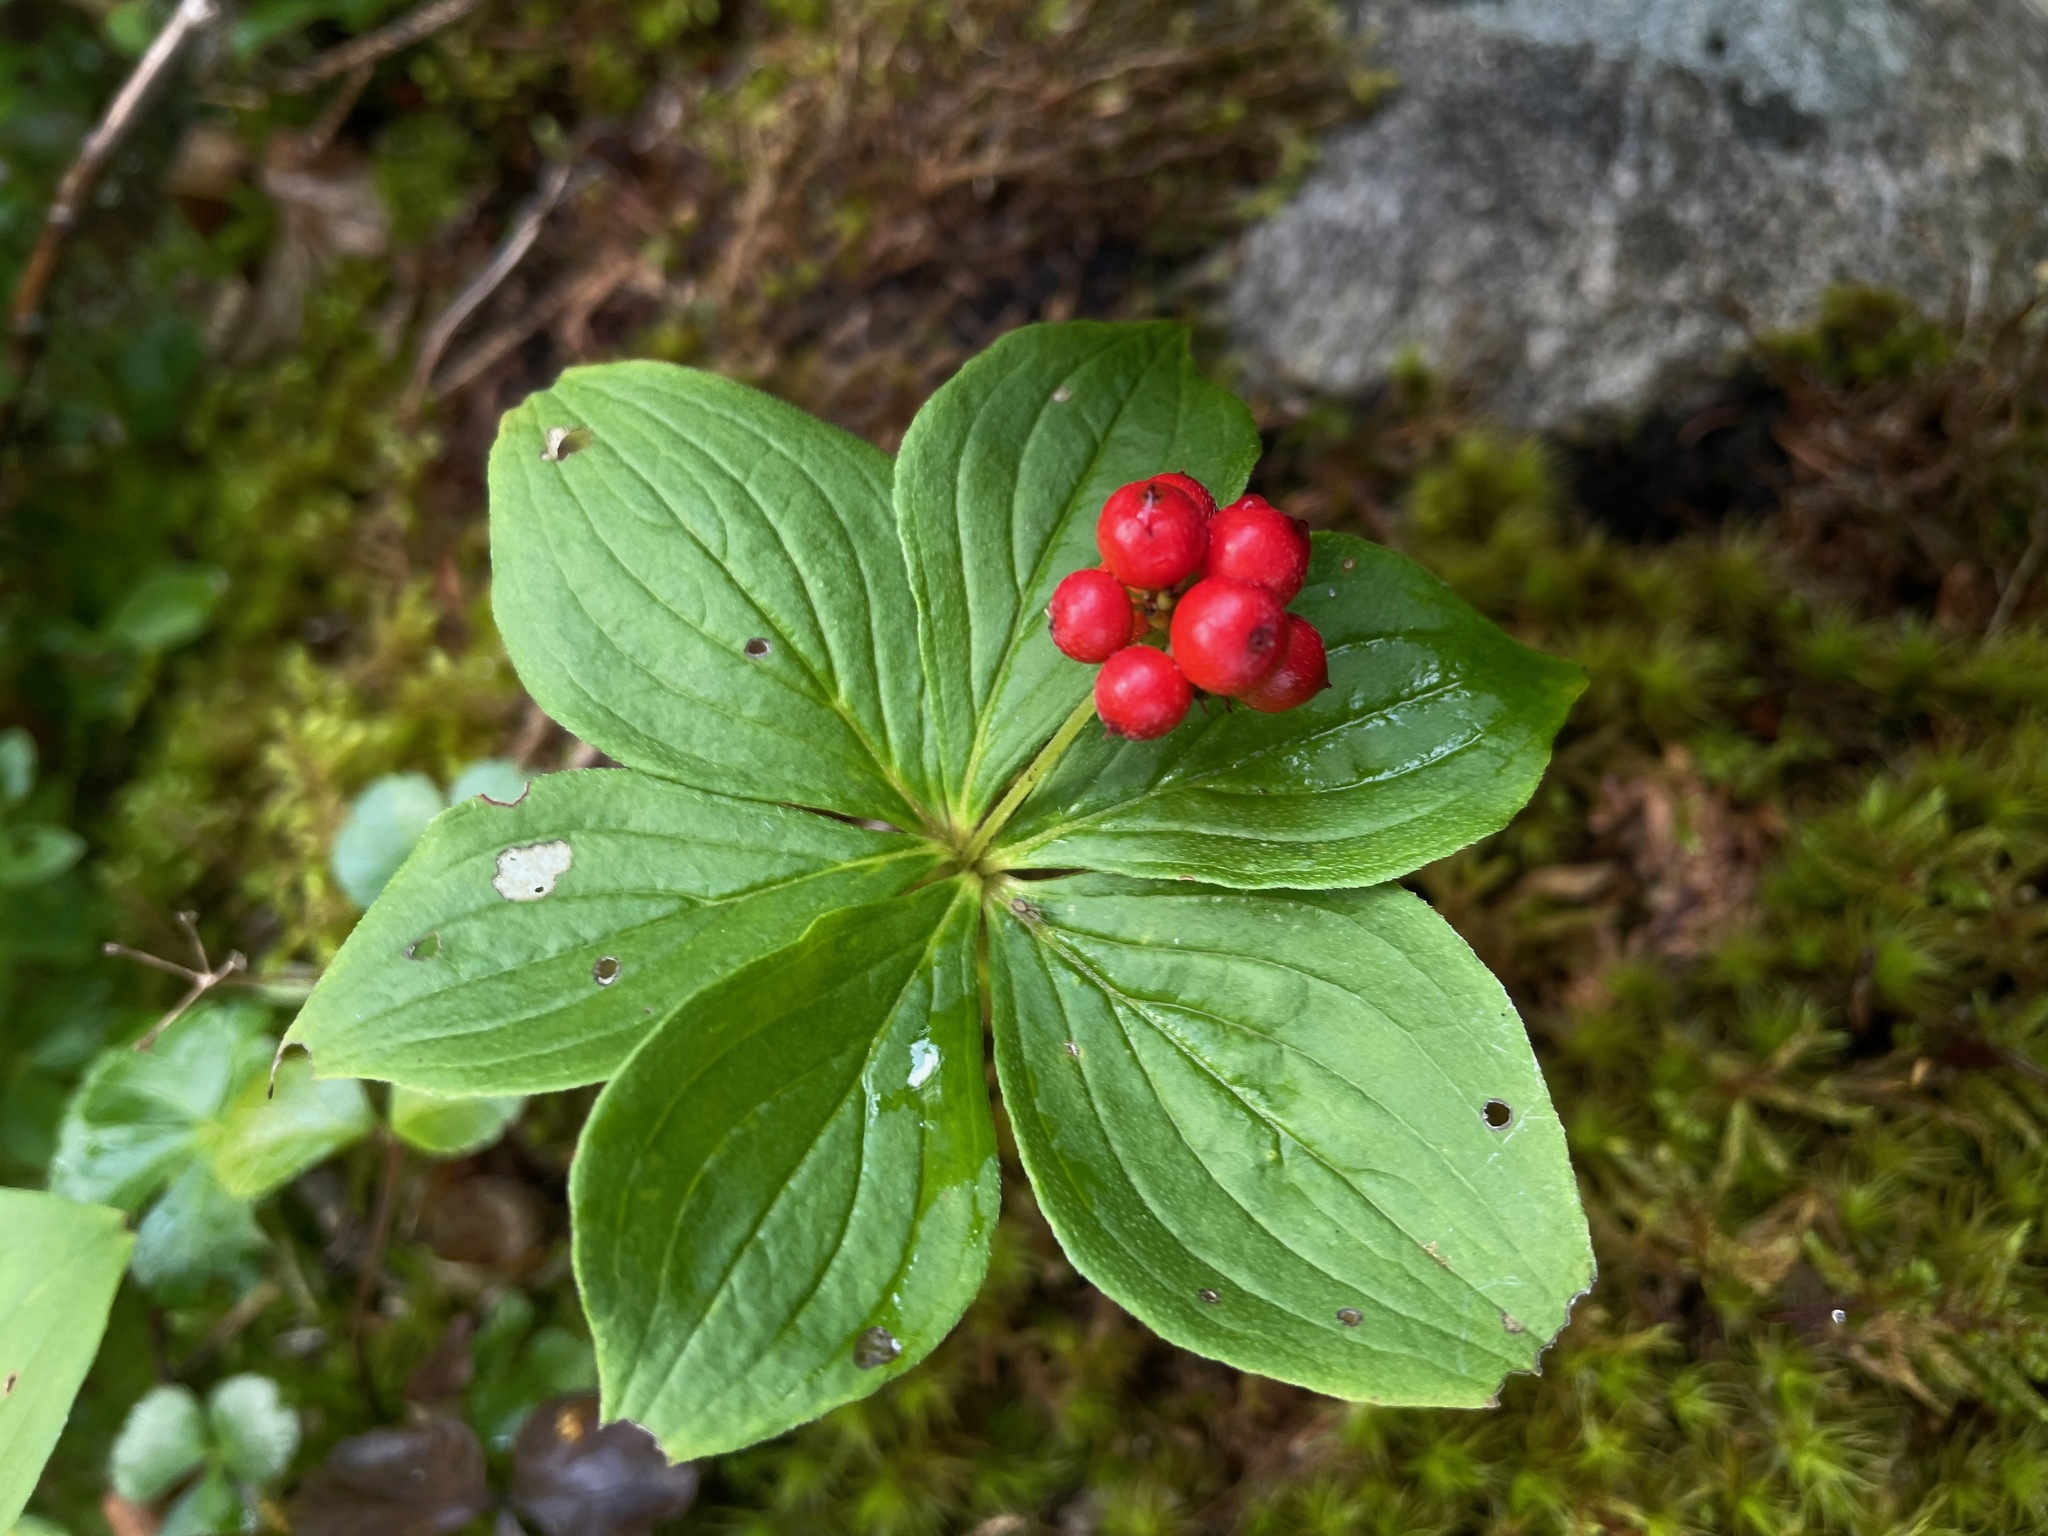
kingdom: Plantae
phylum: Tracheophyta
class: Magnoliopsida
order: Cornales
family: Cornaceae
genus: Cornus
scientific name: Cornus canadensis
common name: Creeping dogwood
